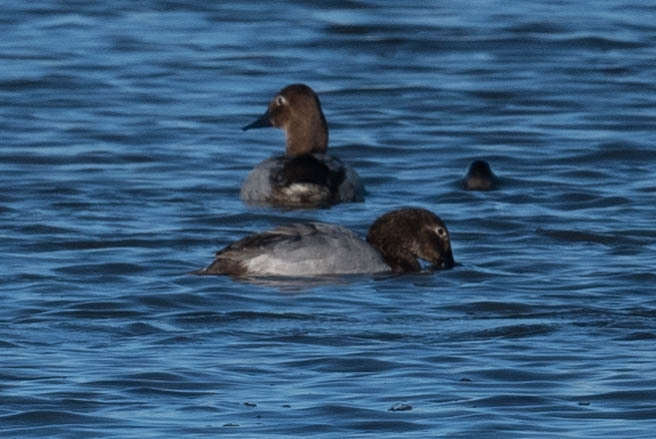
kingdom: Animalia
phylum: Chordata
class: Aves
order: Anseriformes
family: Anatidae
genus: Aythya
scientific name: Aythya valisineria
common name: Canvasback
